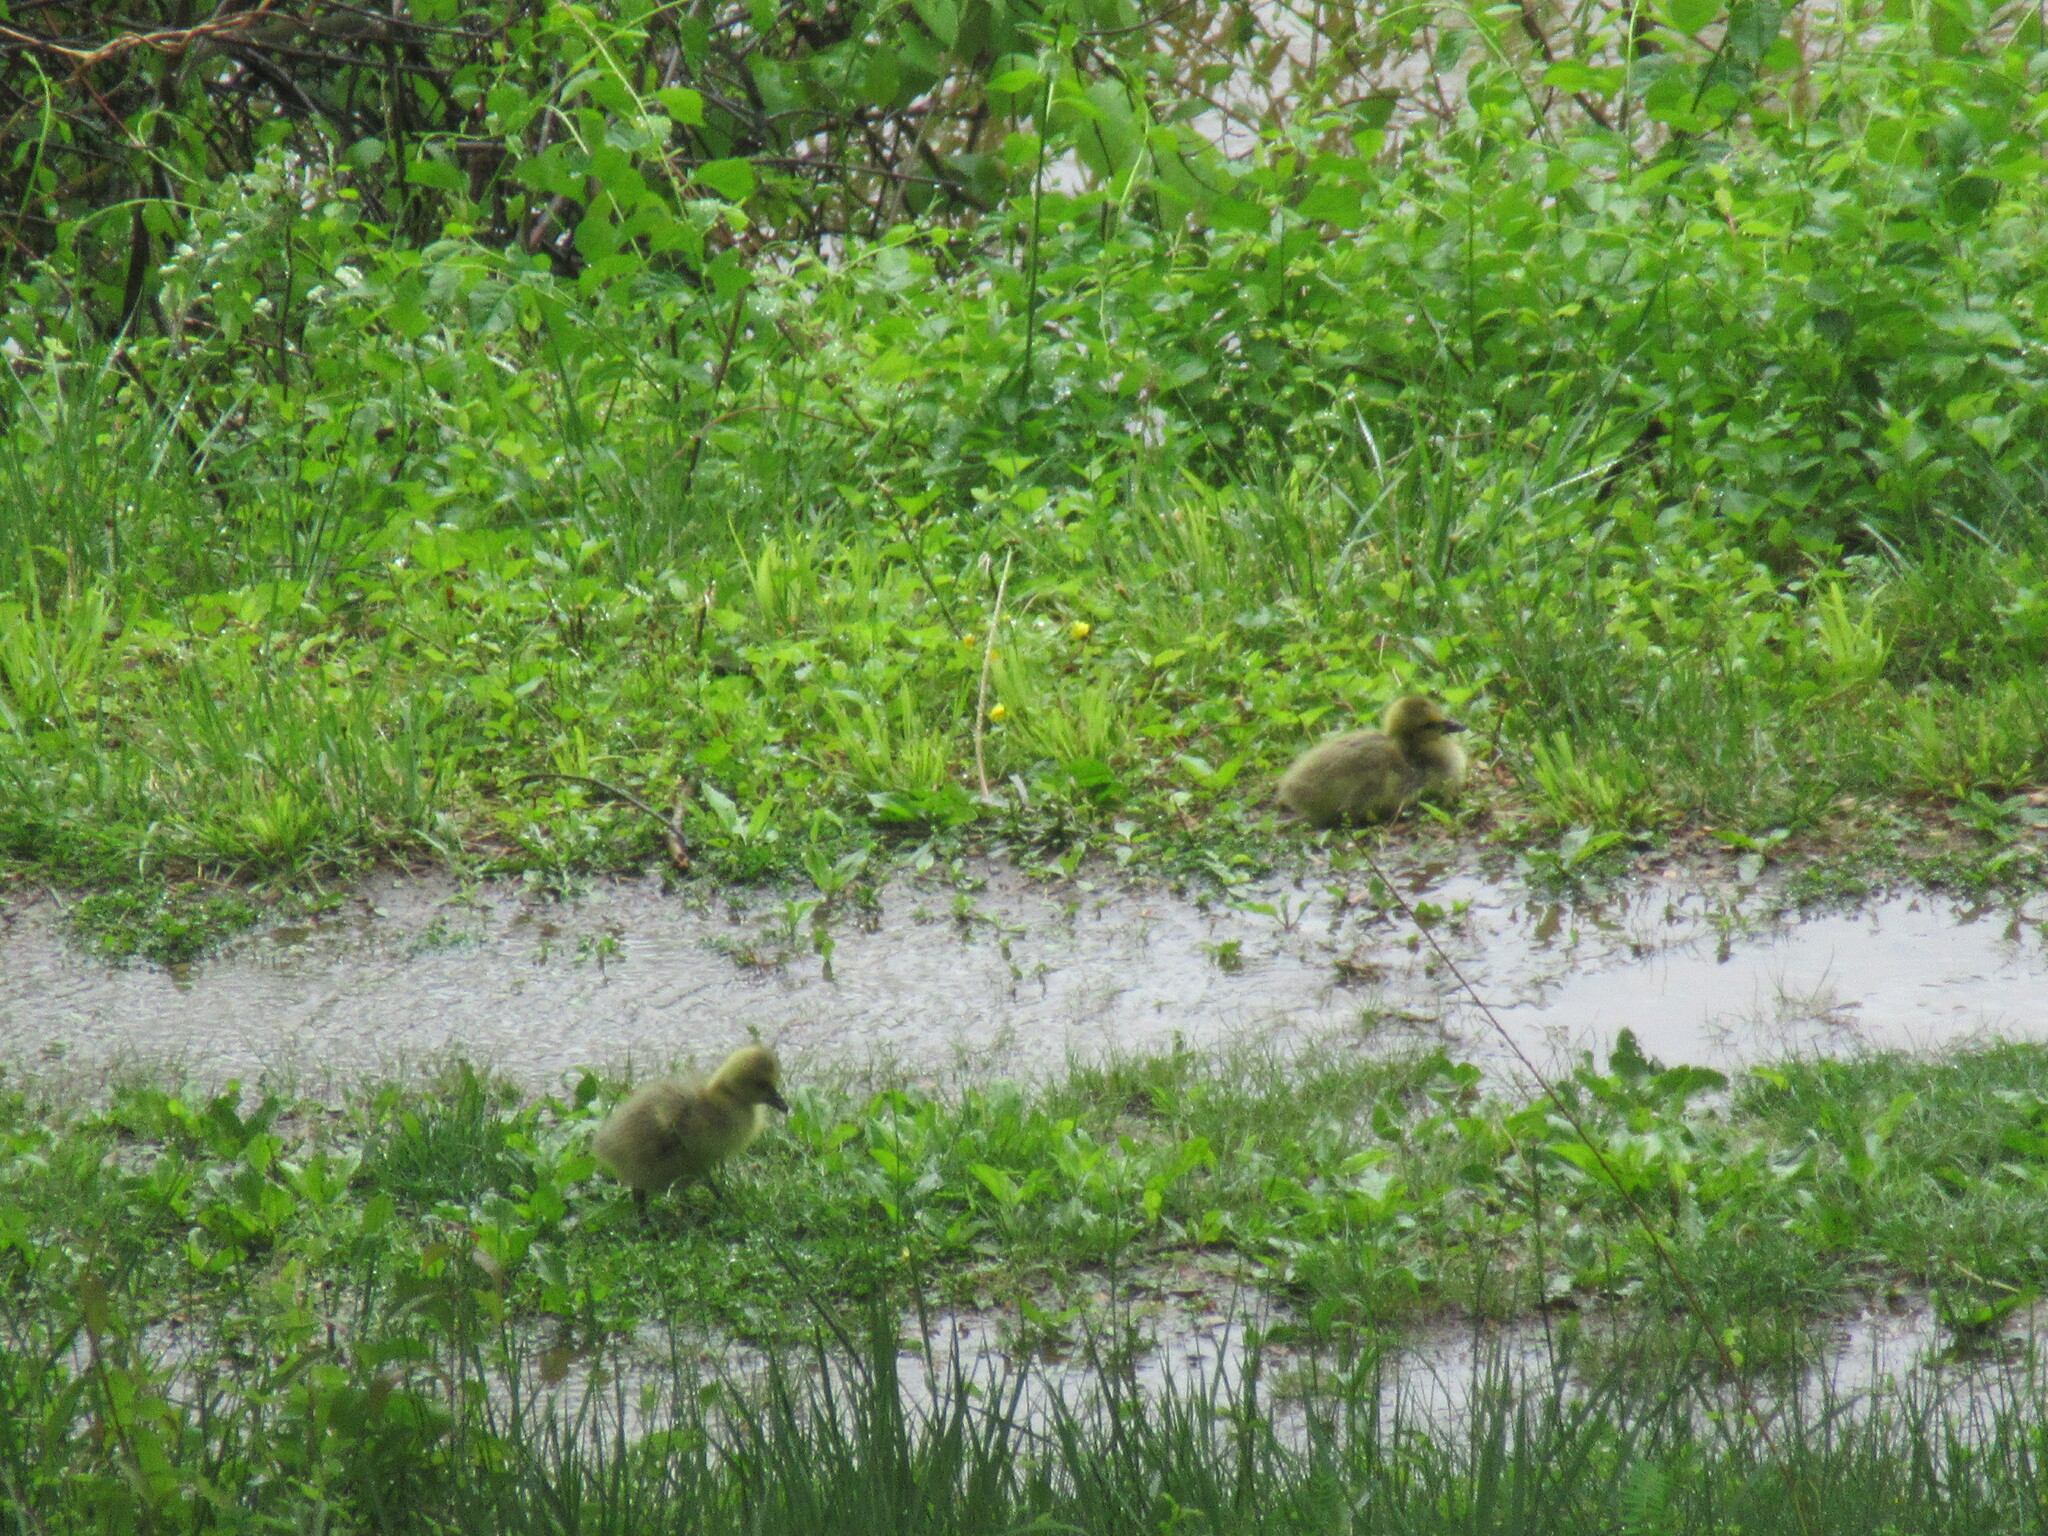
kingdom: Animalia
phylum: Chordata
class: Aves
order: Anseriformes
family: Anatidae
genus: Branta
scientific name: Branta canadensis
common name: Canada goose
